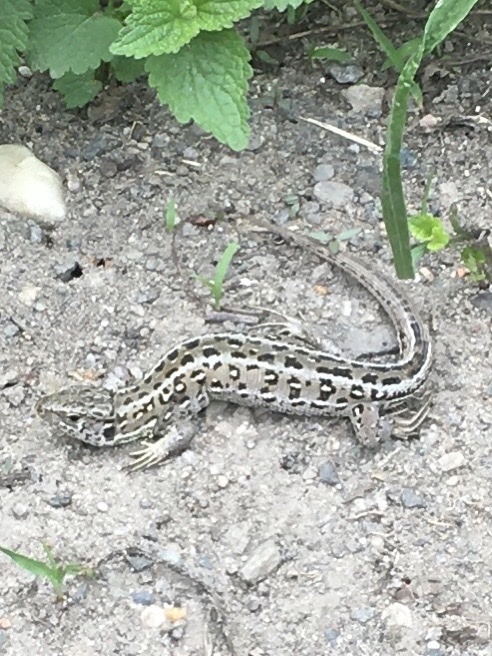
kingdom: Animalia
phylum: Chordata
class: Squamata
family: Lacertidae
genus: Lacerta
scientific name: Lacerta agilis
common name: Sand lizard
